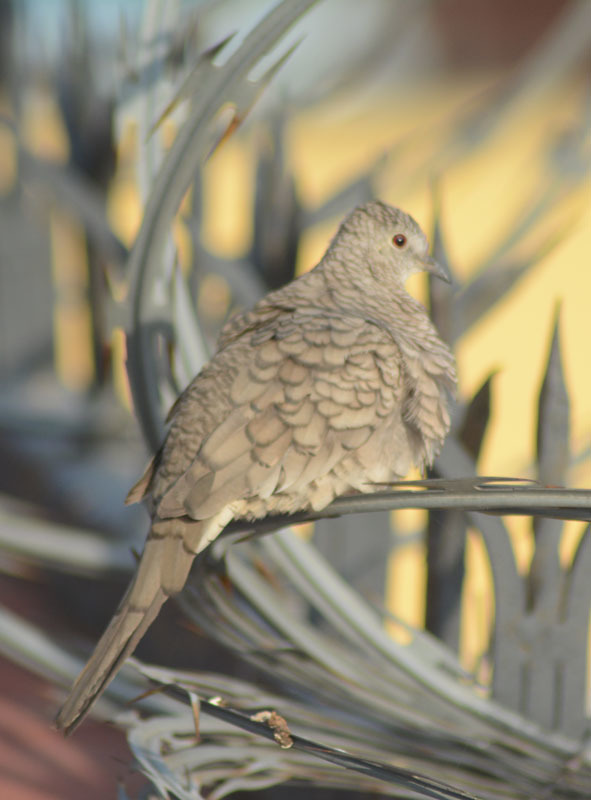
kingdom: Animalia
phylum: Chordata
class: Aves
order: Columbiformes
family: Columbidae
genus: Columbina
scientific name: Columbina inca
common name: Inca dove
